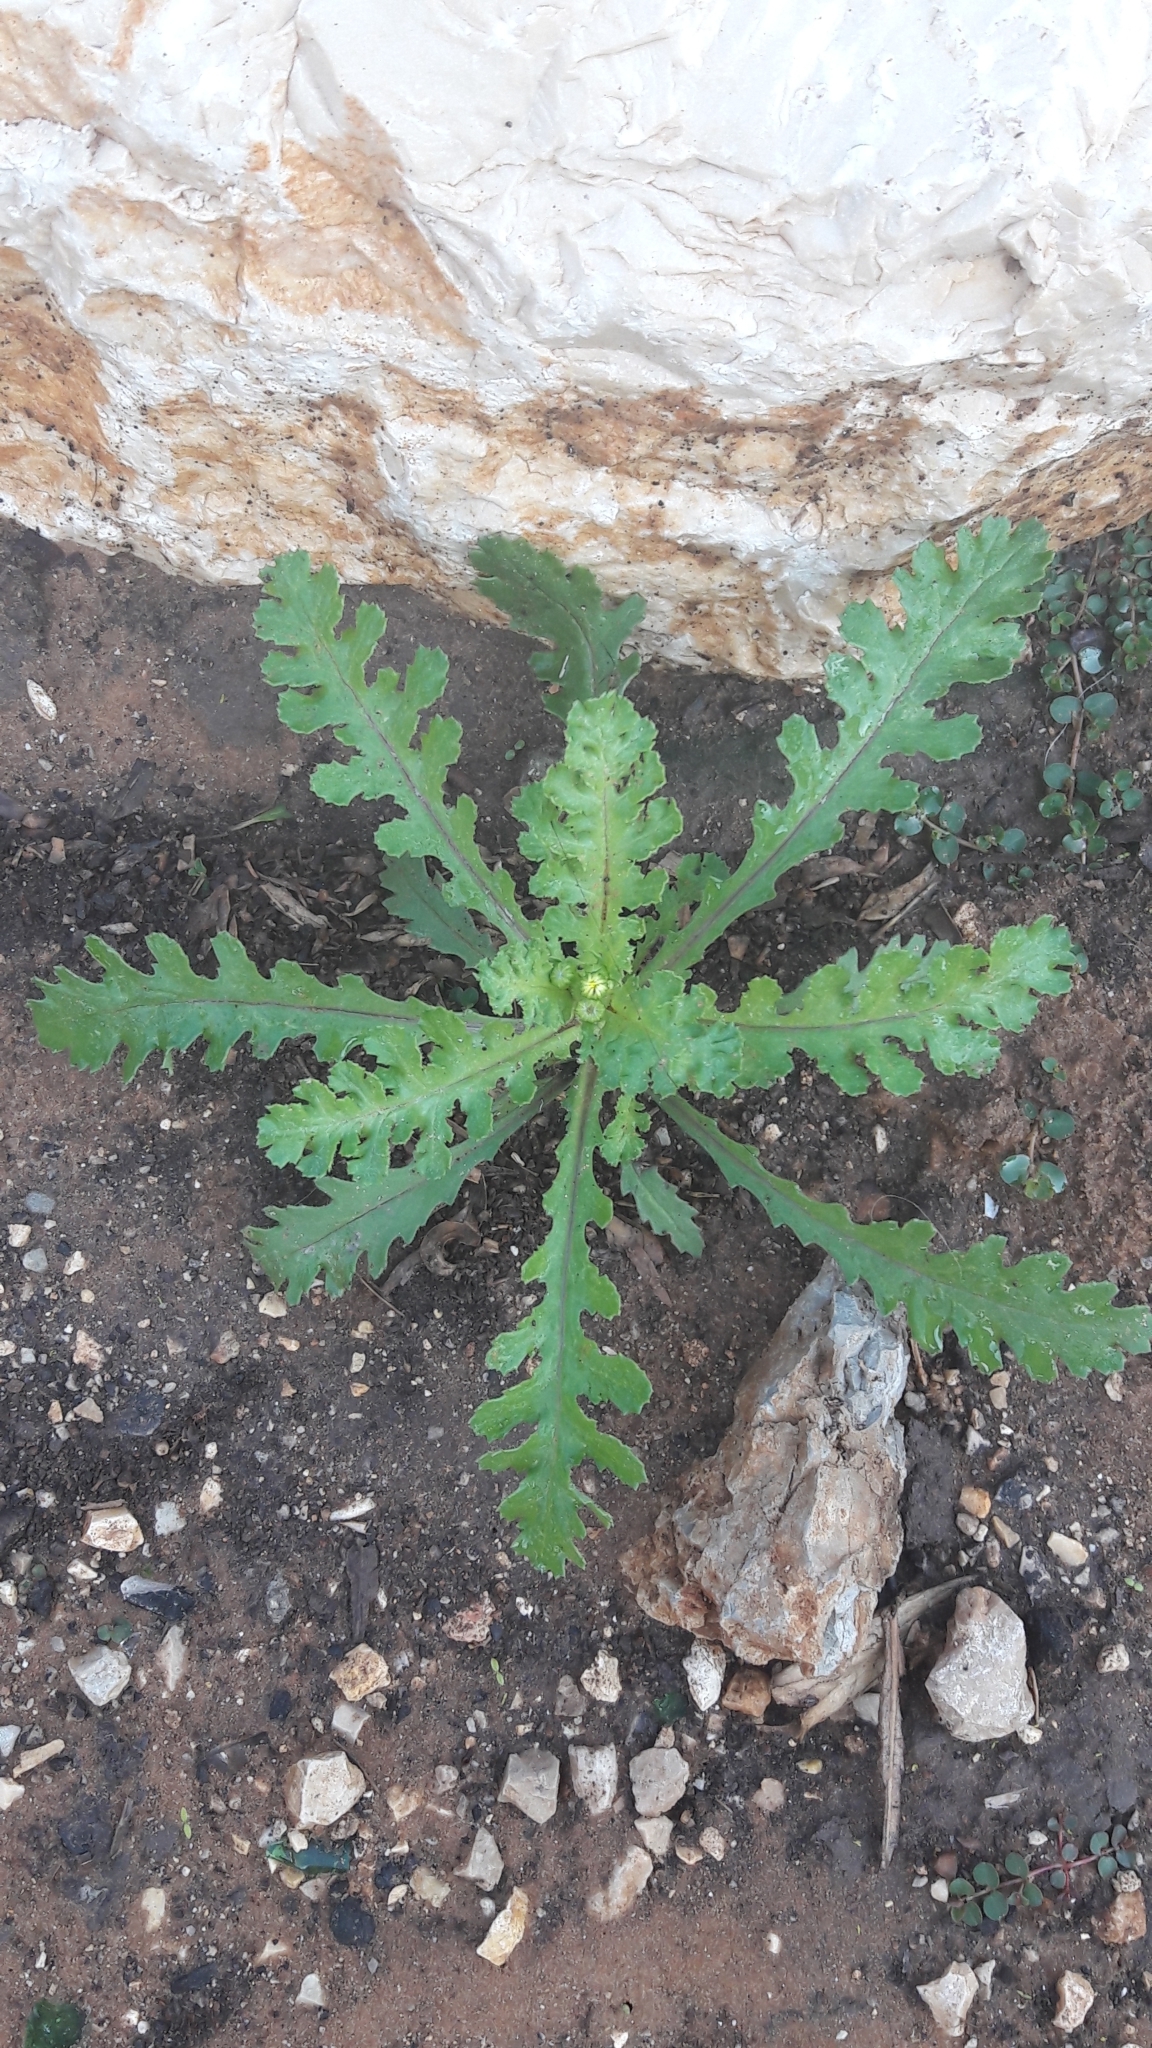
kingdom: Plantae
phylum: Tracheophyta
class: Magnoliopsida
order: Asterales
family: Asteraceae
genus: Senecio
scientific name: Senecio vernalis
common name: Eastern groundsel
